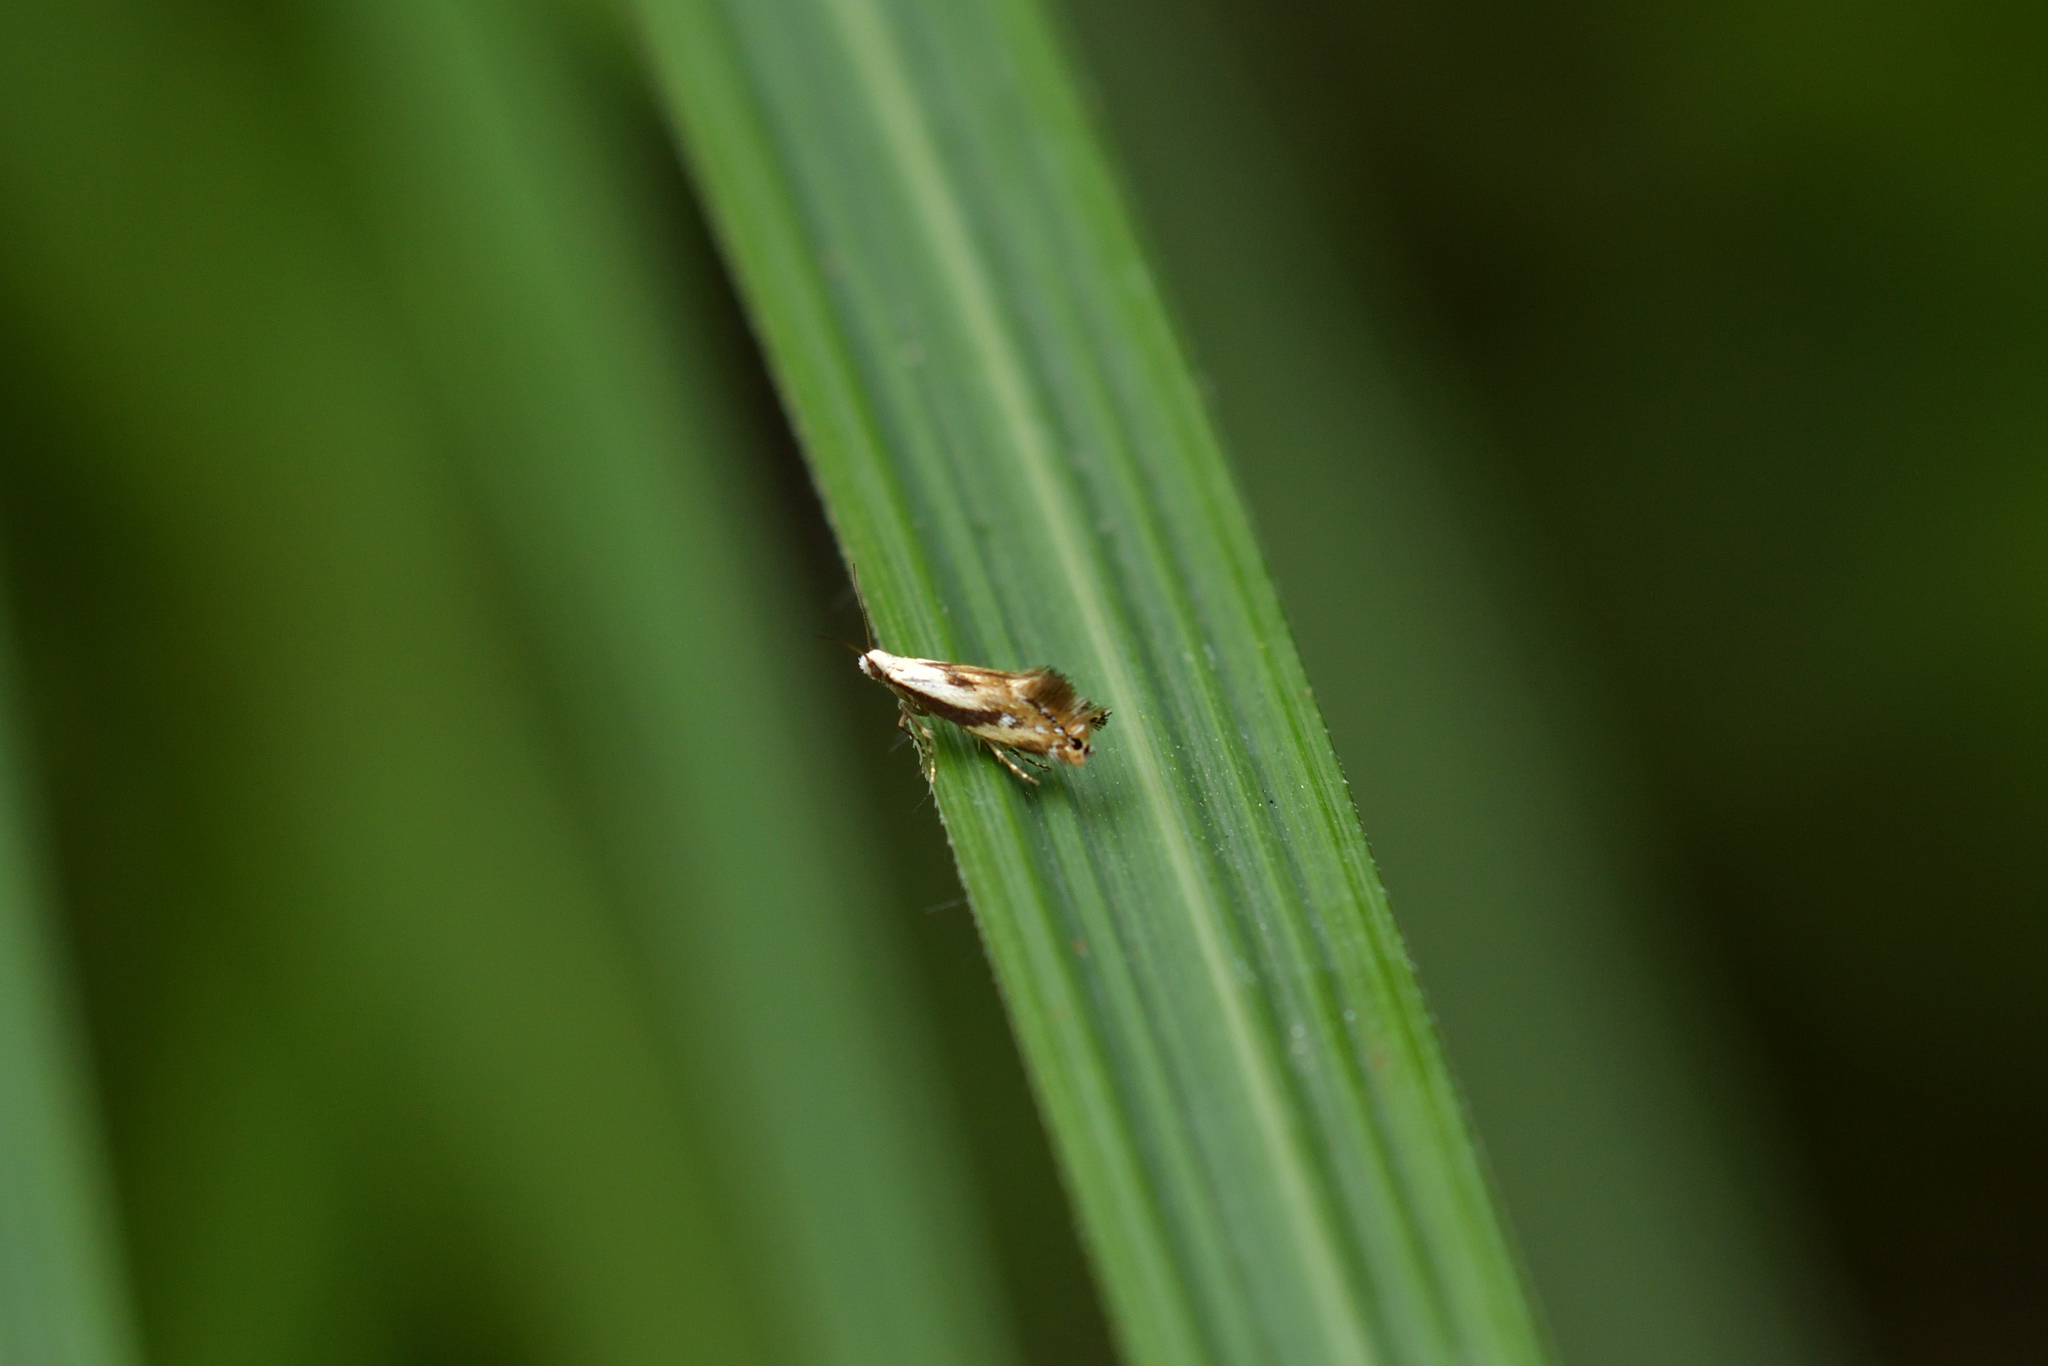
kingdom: Animalia
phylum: Arthropoda
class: Insecta
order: Lepidoptera
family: Mnesarchaeidae
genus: Mnesarchella
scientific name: Mnesarchella acuta
